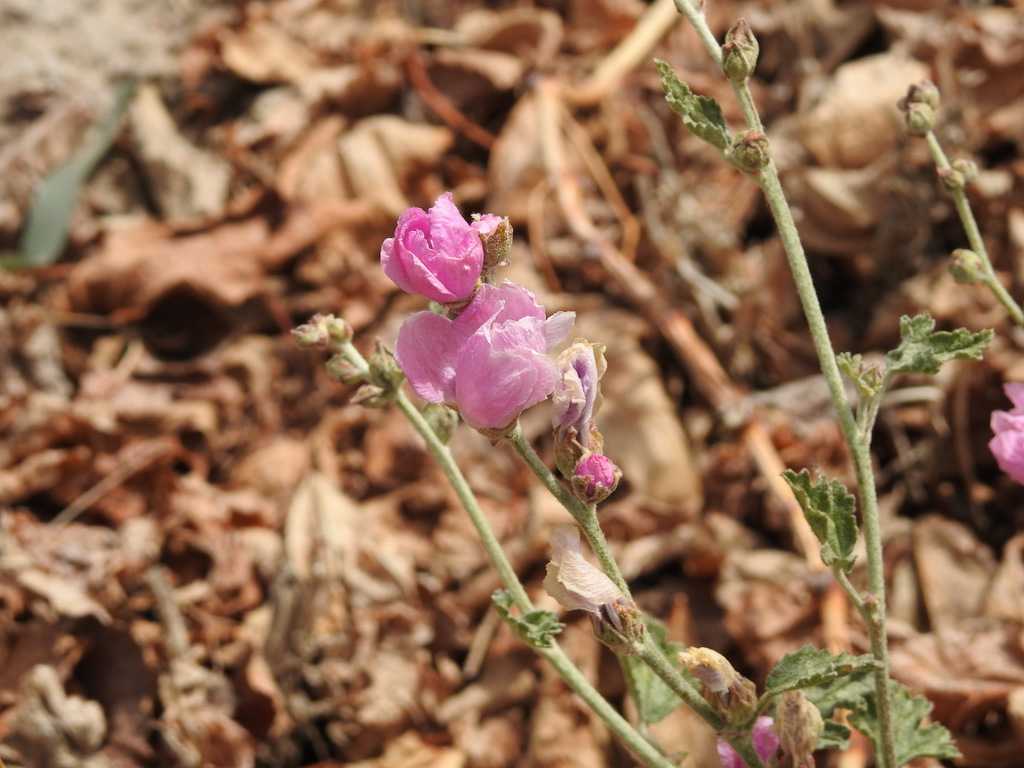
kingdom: Plantae
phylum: Tracheophyta
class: Magnoliopsida
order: Malvales
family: Malvaceae
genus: Sphaeralcea
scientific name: Sphaeralcea mendocina
